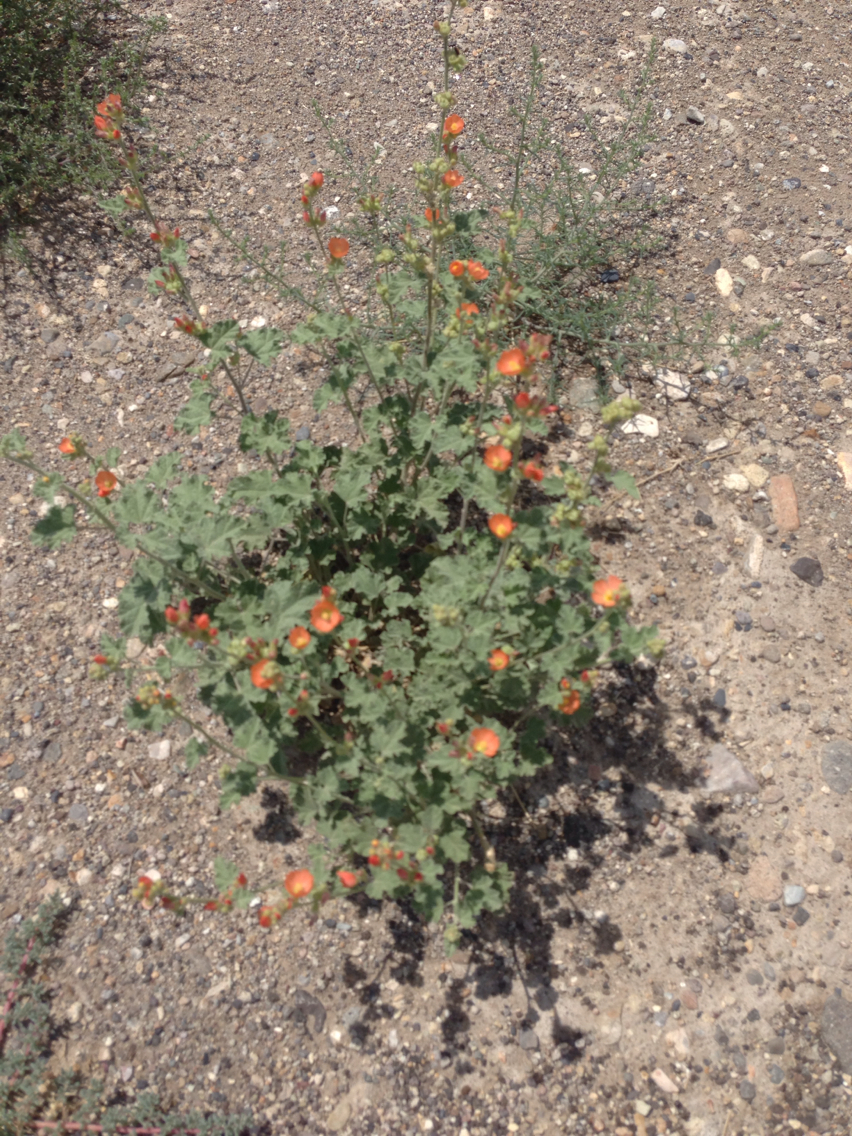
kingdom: Plantae
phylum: Tracheophyta
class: Magnoliopsida
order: Malvales
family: Malvaceae
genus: Sphaeralcea
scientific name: Sphaeralcea ambigua
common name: Apricot globe-mallow
